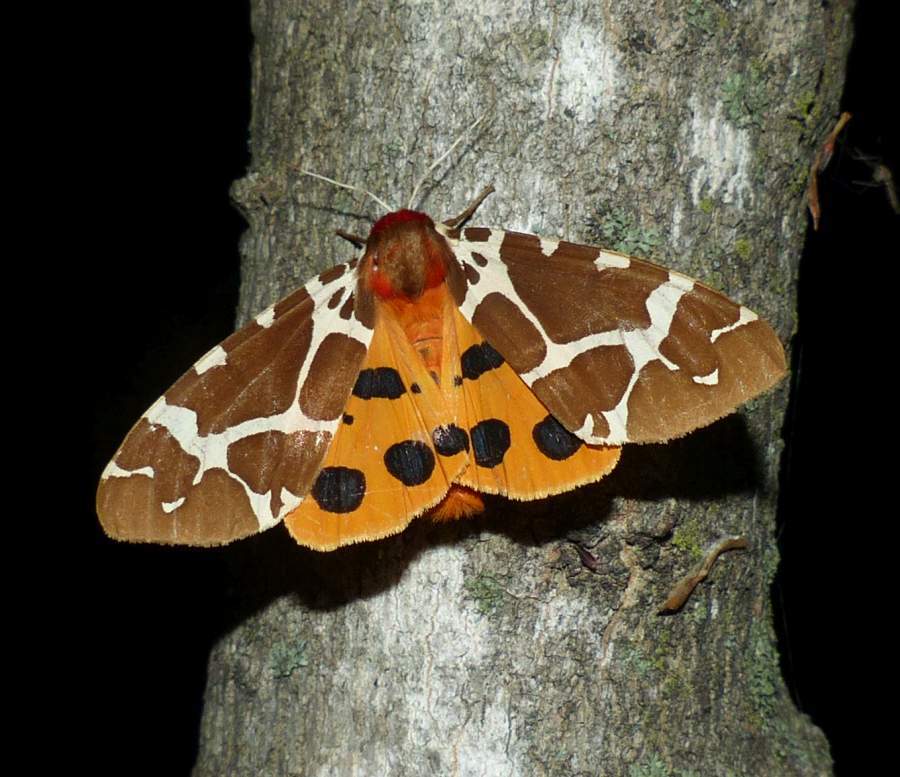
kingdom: Animalia
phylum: Arthropoda
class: Insecta
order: Lepidoptera
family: Erebidae
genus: Arctia
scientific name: Arctia caja
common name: Garden tiger
